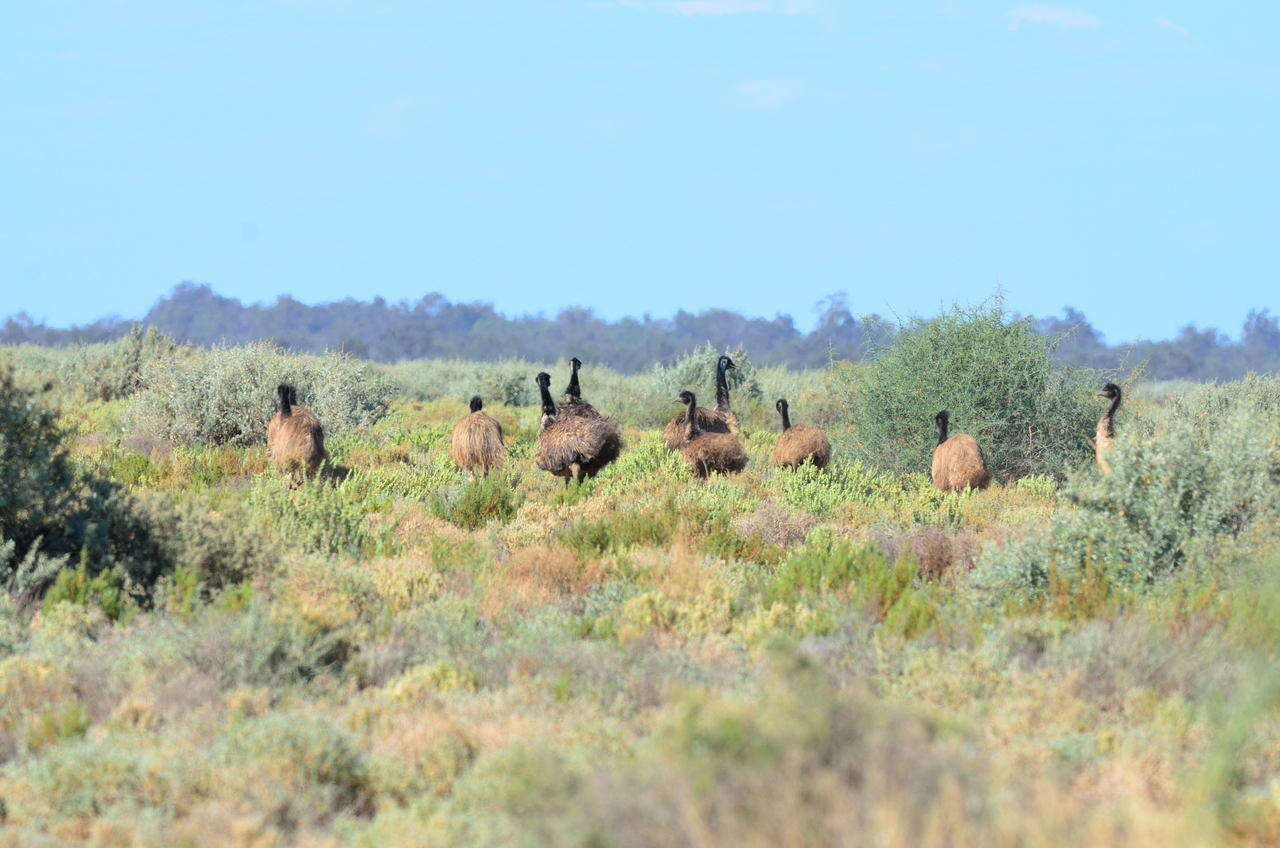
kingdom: Animalia
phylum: Chordata
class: Aves
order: Casuariiformes
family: Dromaiidae
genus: Dromaius
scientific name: Dromaius novaehollandiae
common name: Emu
